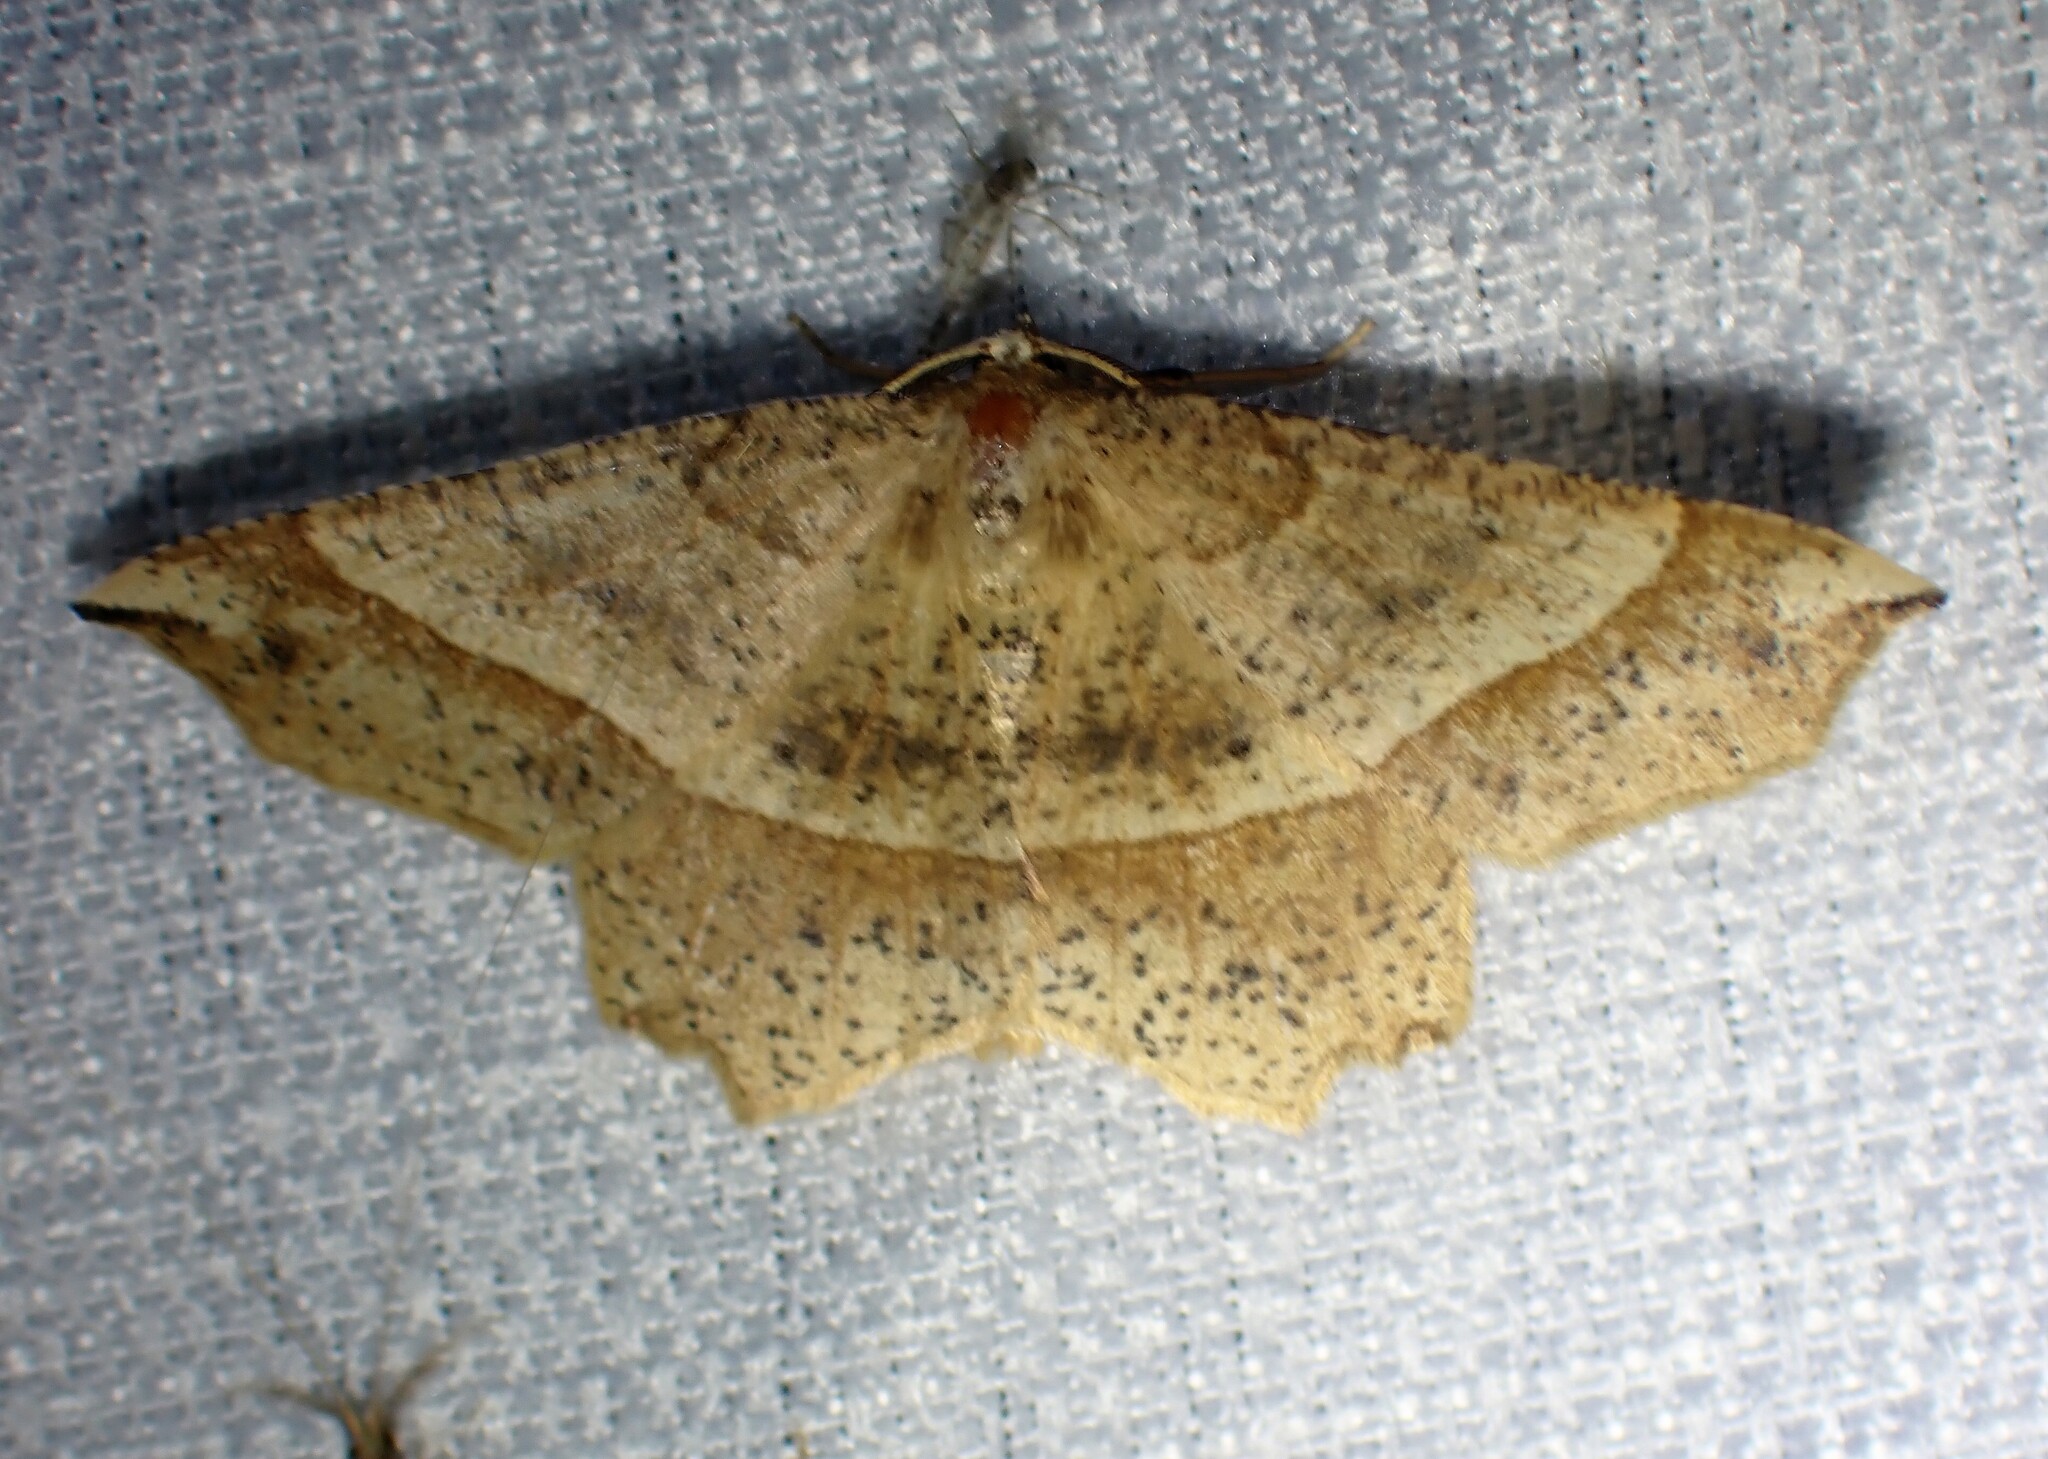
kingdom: Animalia
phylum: Arthropoda
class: Insecta
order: Lepidoptera
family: Geometridae
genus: Euchlaena
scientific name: Euchlaena tigrinaria
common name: Mottled euchlaena moth
